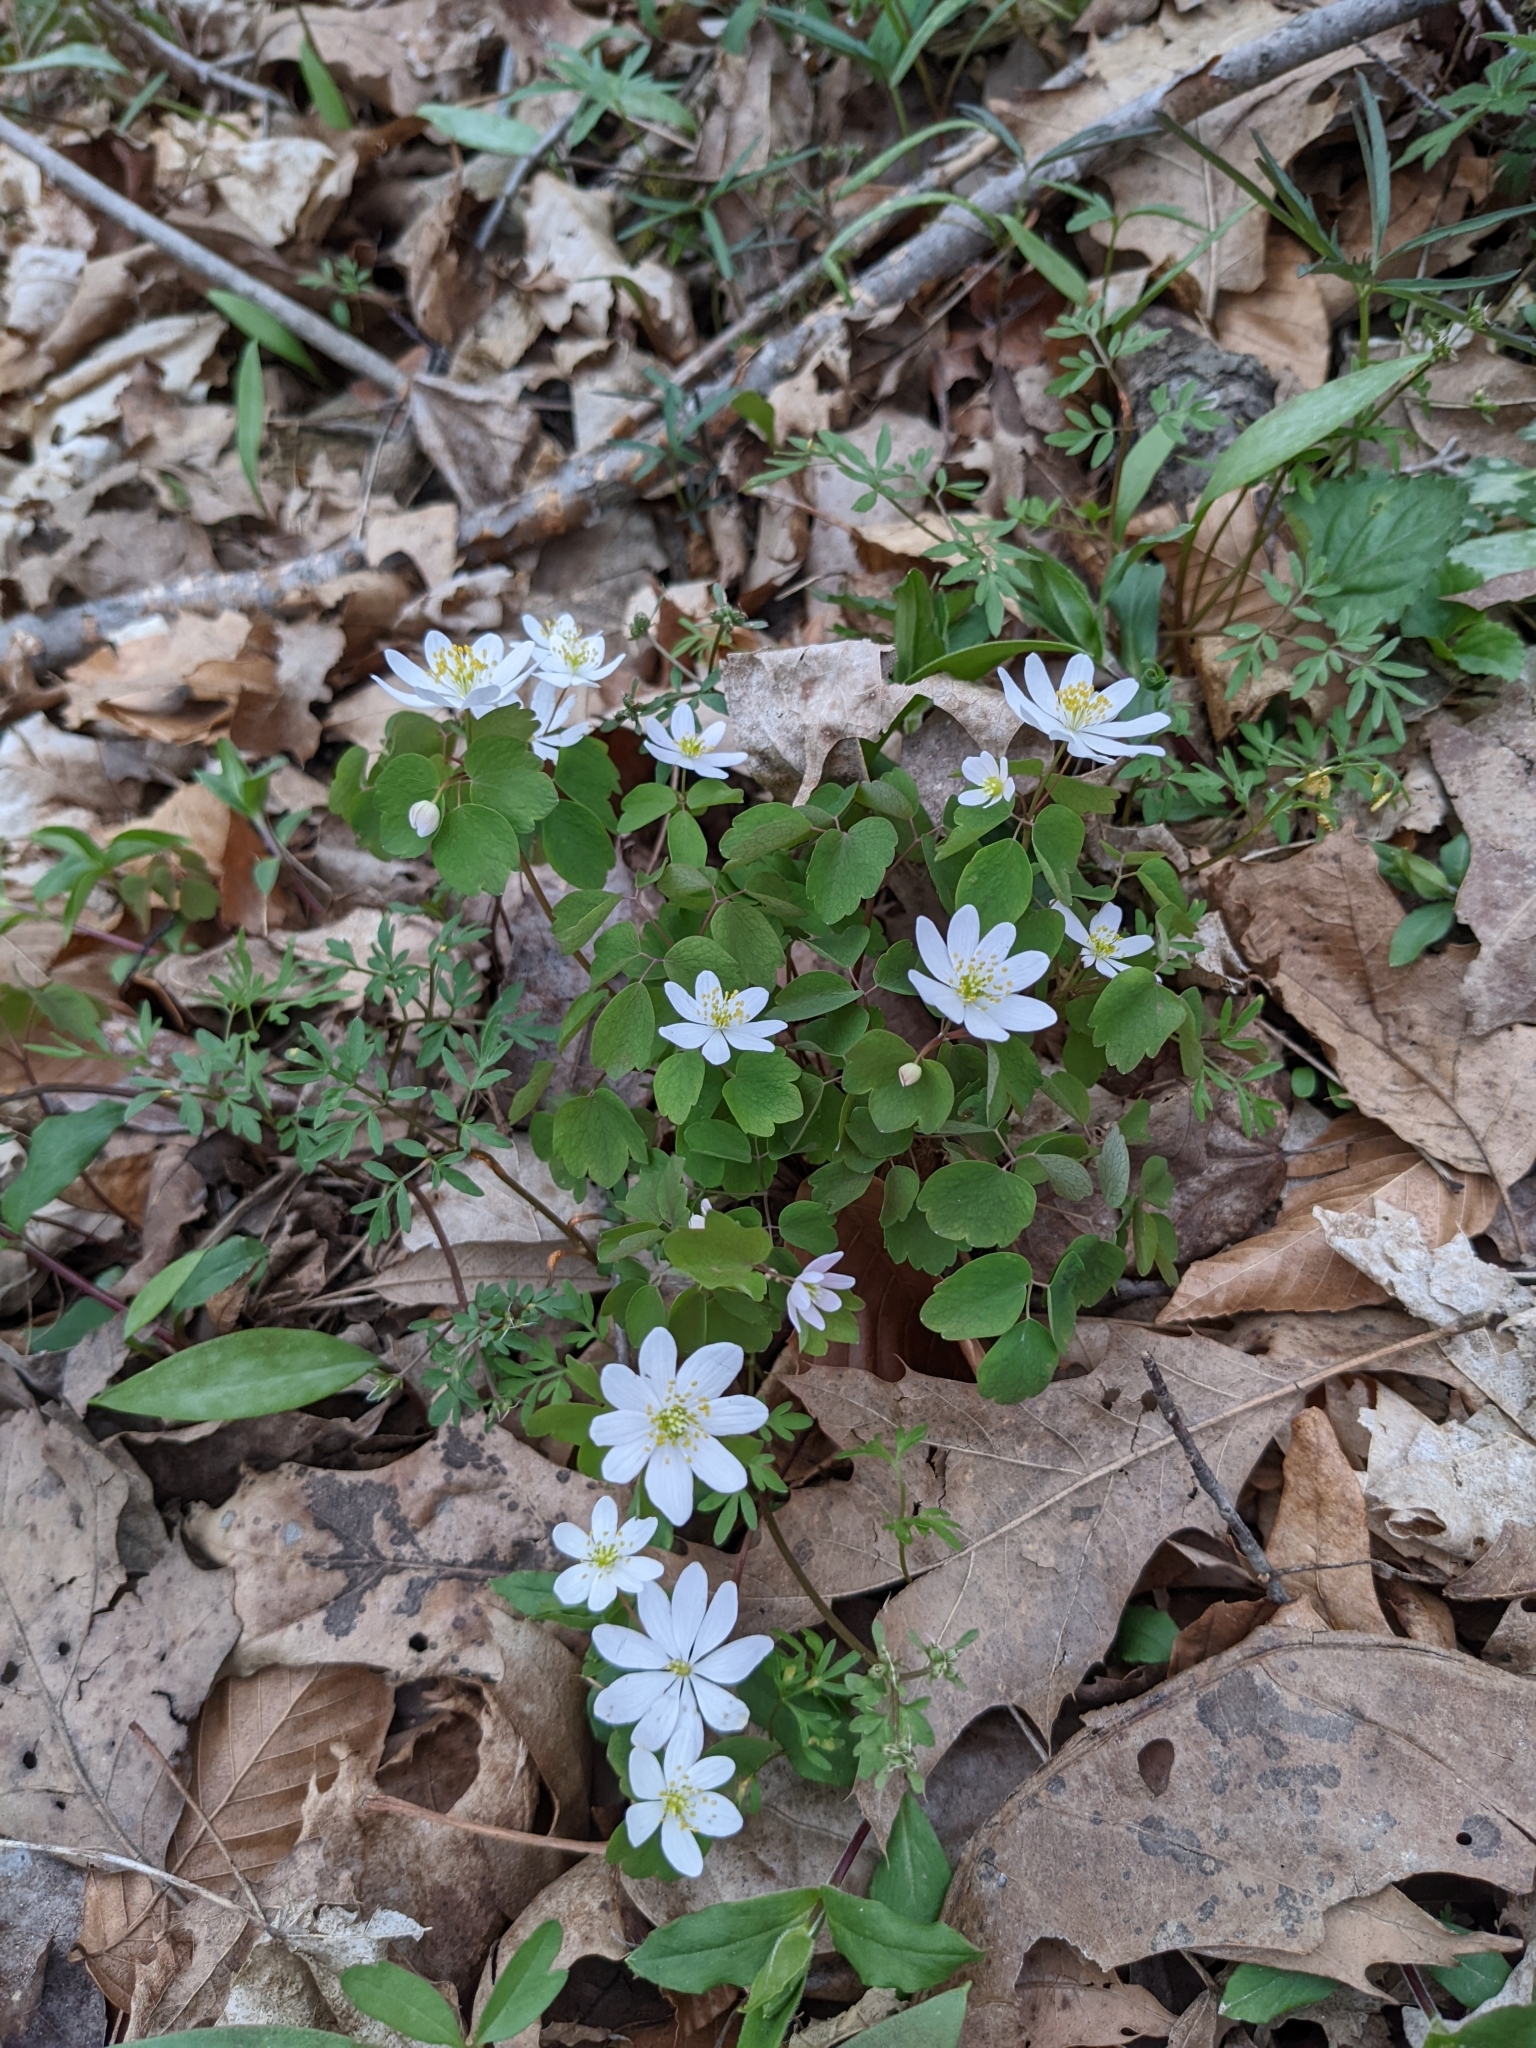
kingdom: Plantae
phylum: Tracheophyta
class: Magnoliopsida
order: Ranunculales
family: Ranunculaceae
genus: Thalictrum
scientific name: Thalictrum thalictroides
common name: Rue-anemone
